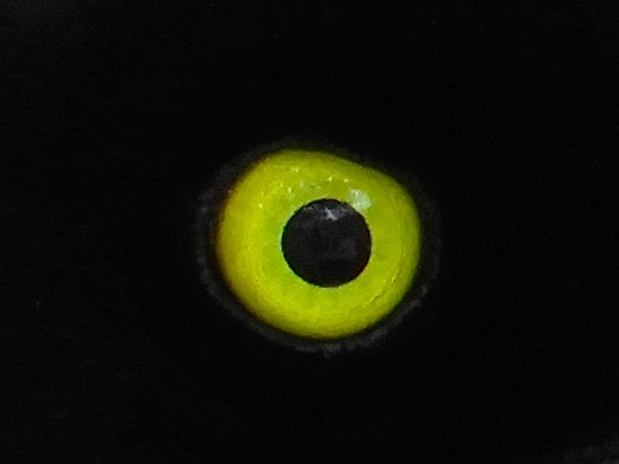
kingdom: Animalia
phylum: Chordata
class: Aves
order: Passeriformes
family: Corvidae
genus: Cyanocorax
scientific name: Cyanocorax beecheii
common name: Purplish-backed jay
